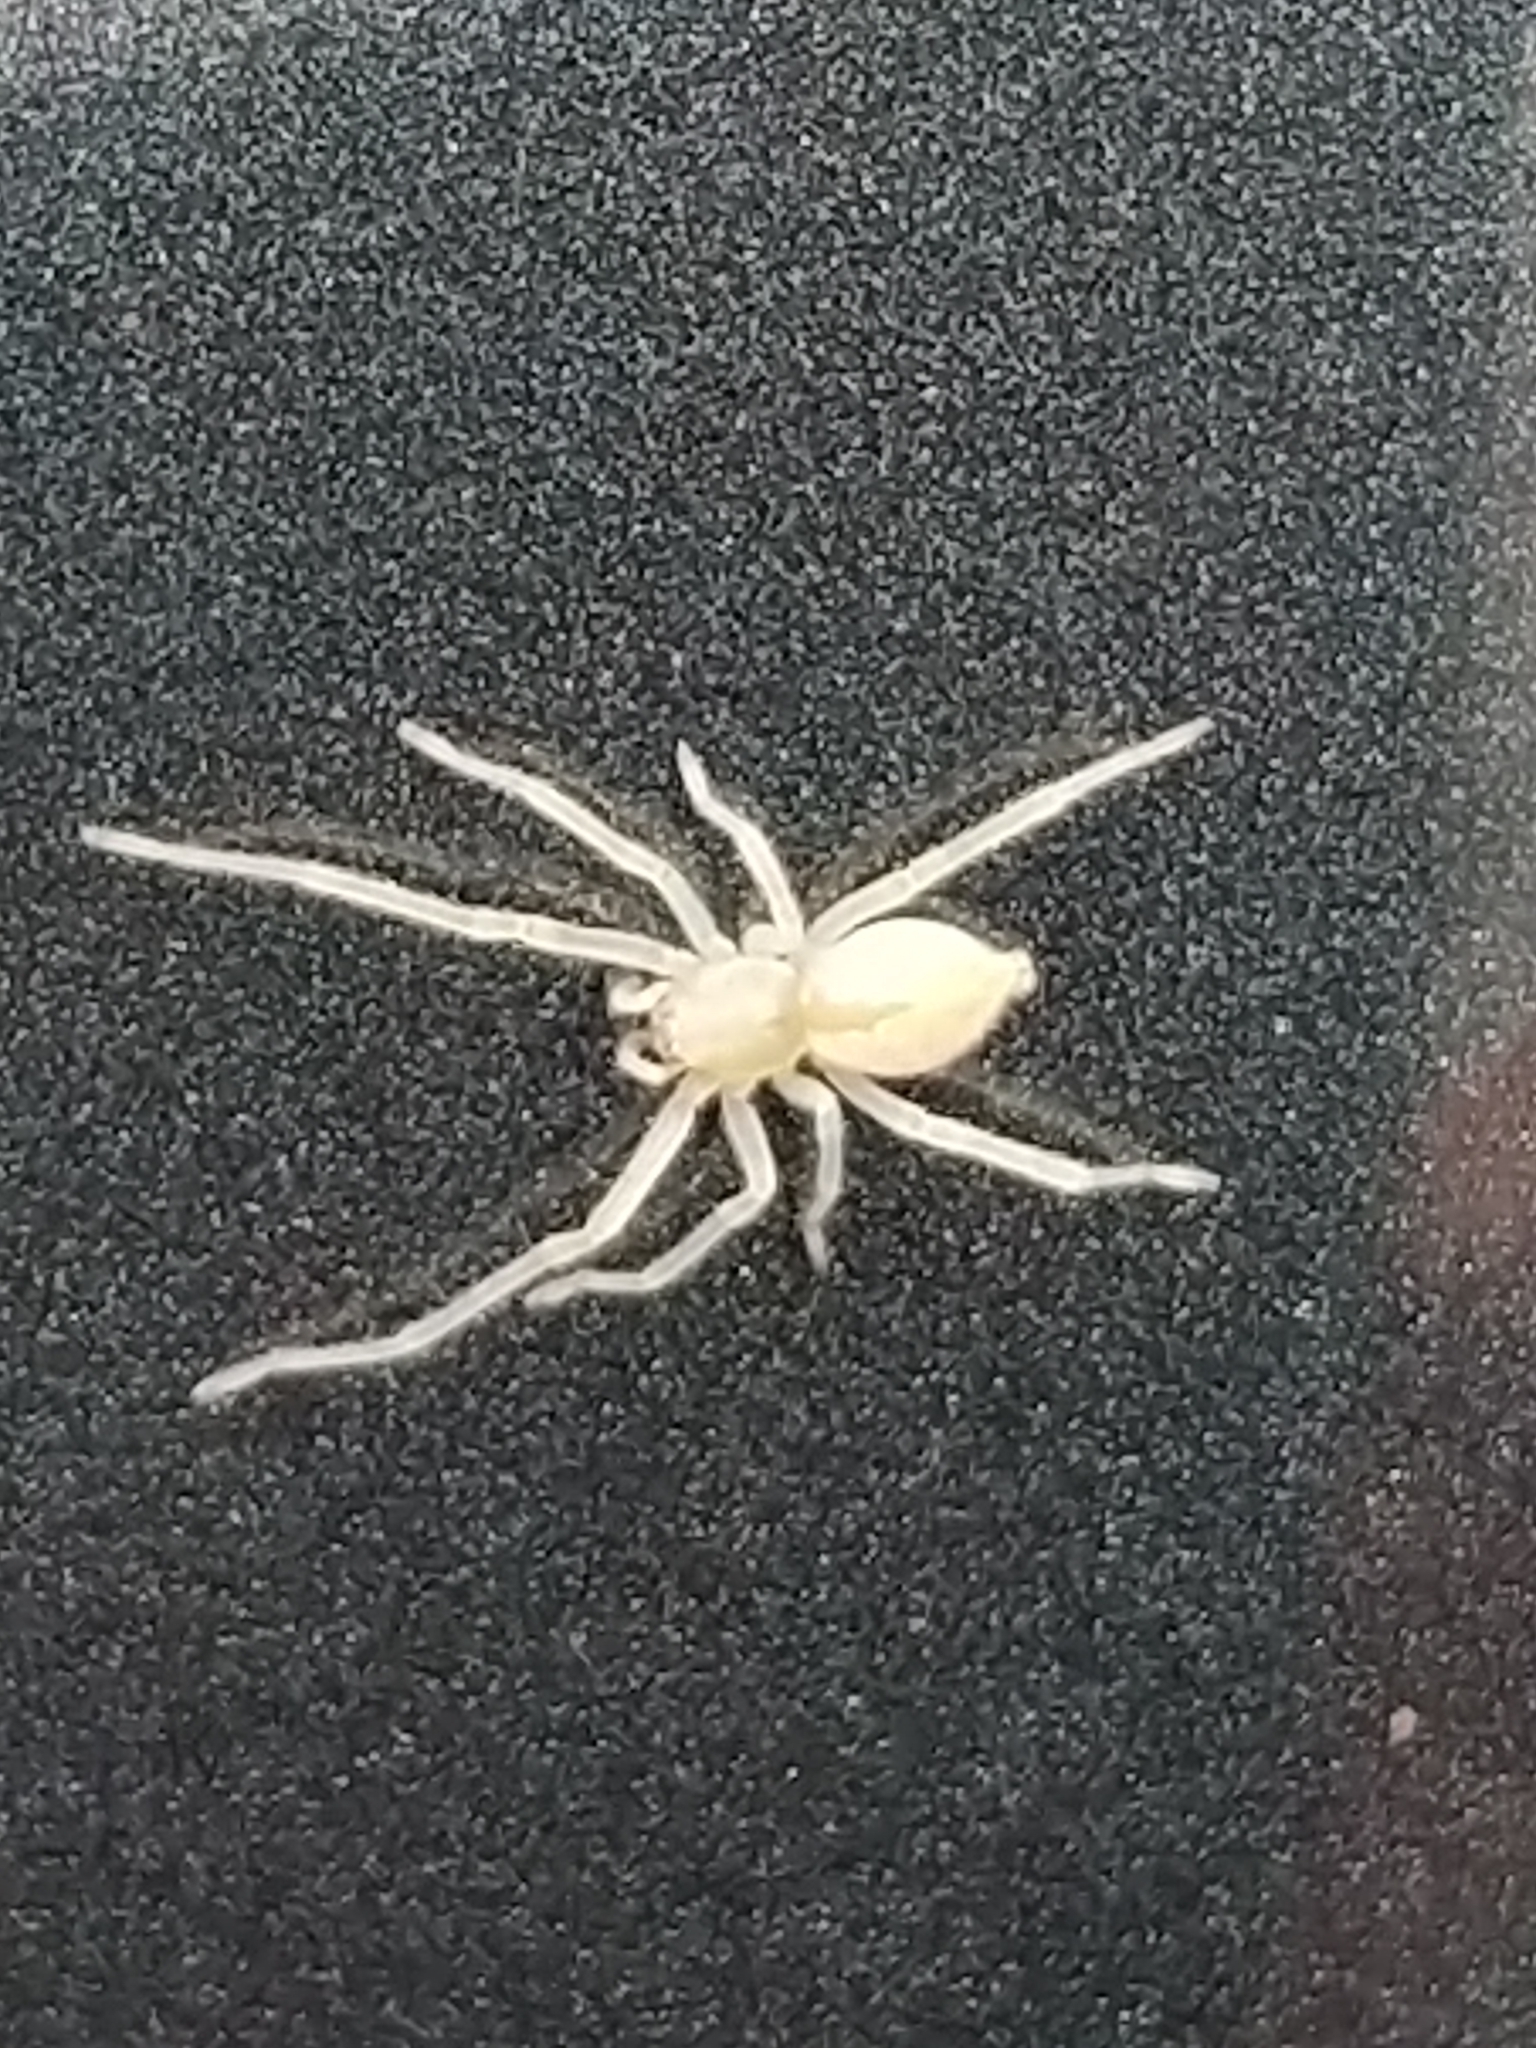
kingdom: Animalia
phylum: Arthropoda
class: Arachnida
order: Araneae
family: Cheiracanthiidae
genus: Cheiracanthium
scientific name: Cheiracanthium mildei
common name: Northern yellow sac spider
